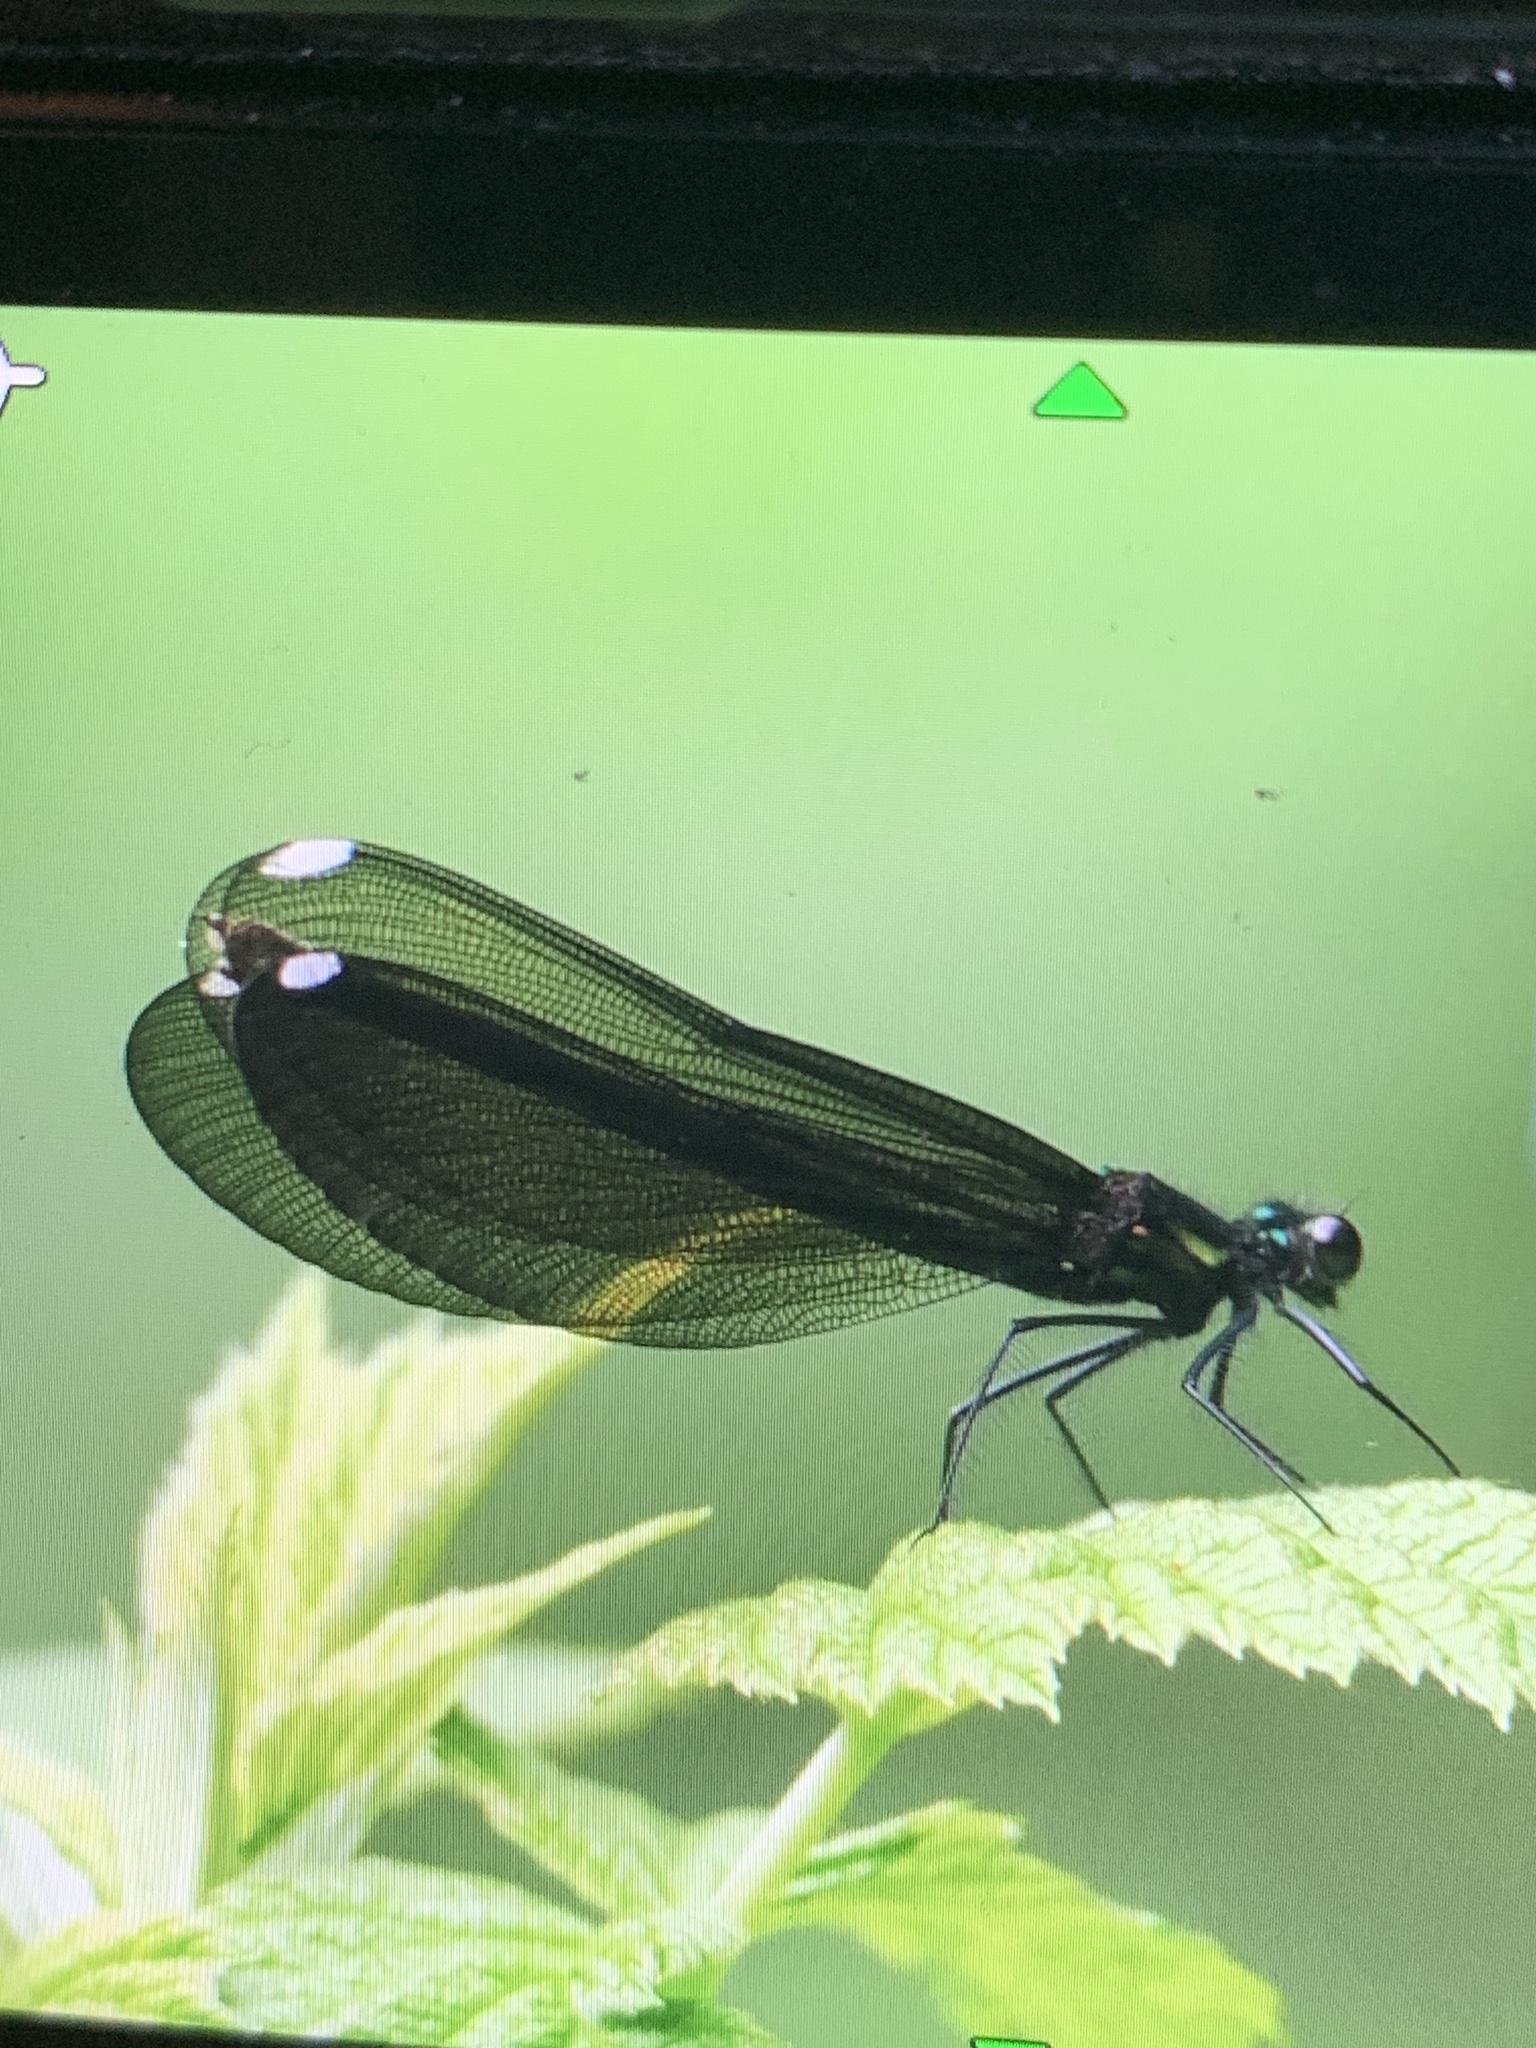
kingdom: Animalia
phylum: Arthropoda
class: Insecta
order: Odonata
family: Calopterygidae
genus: Calopteryx
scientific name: Calopteryx maculata
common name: Ebony jewelwing
